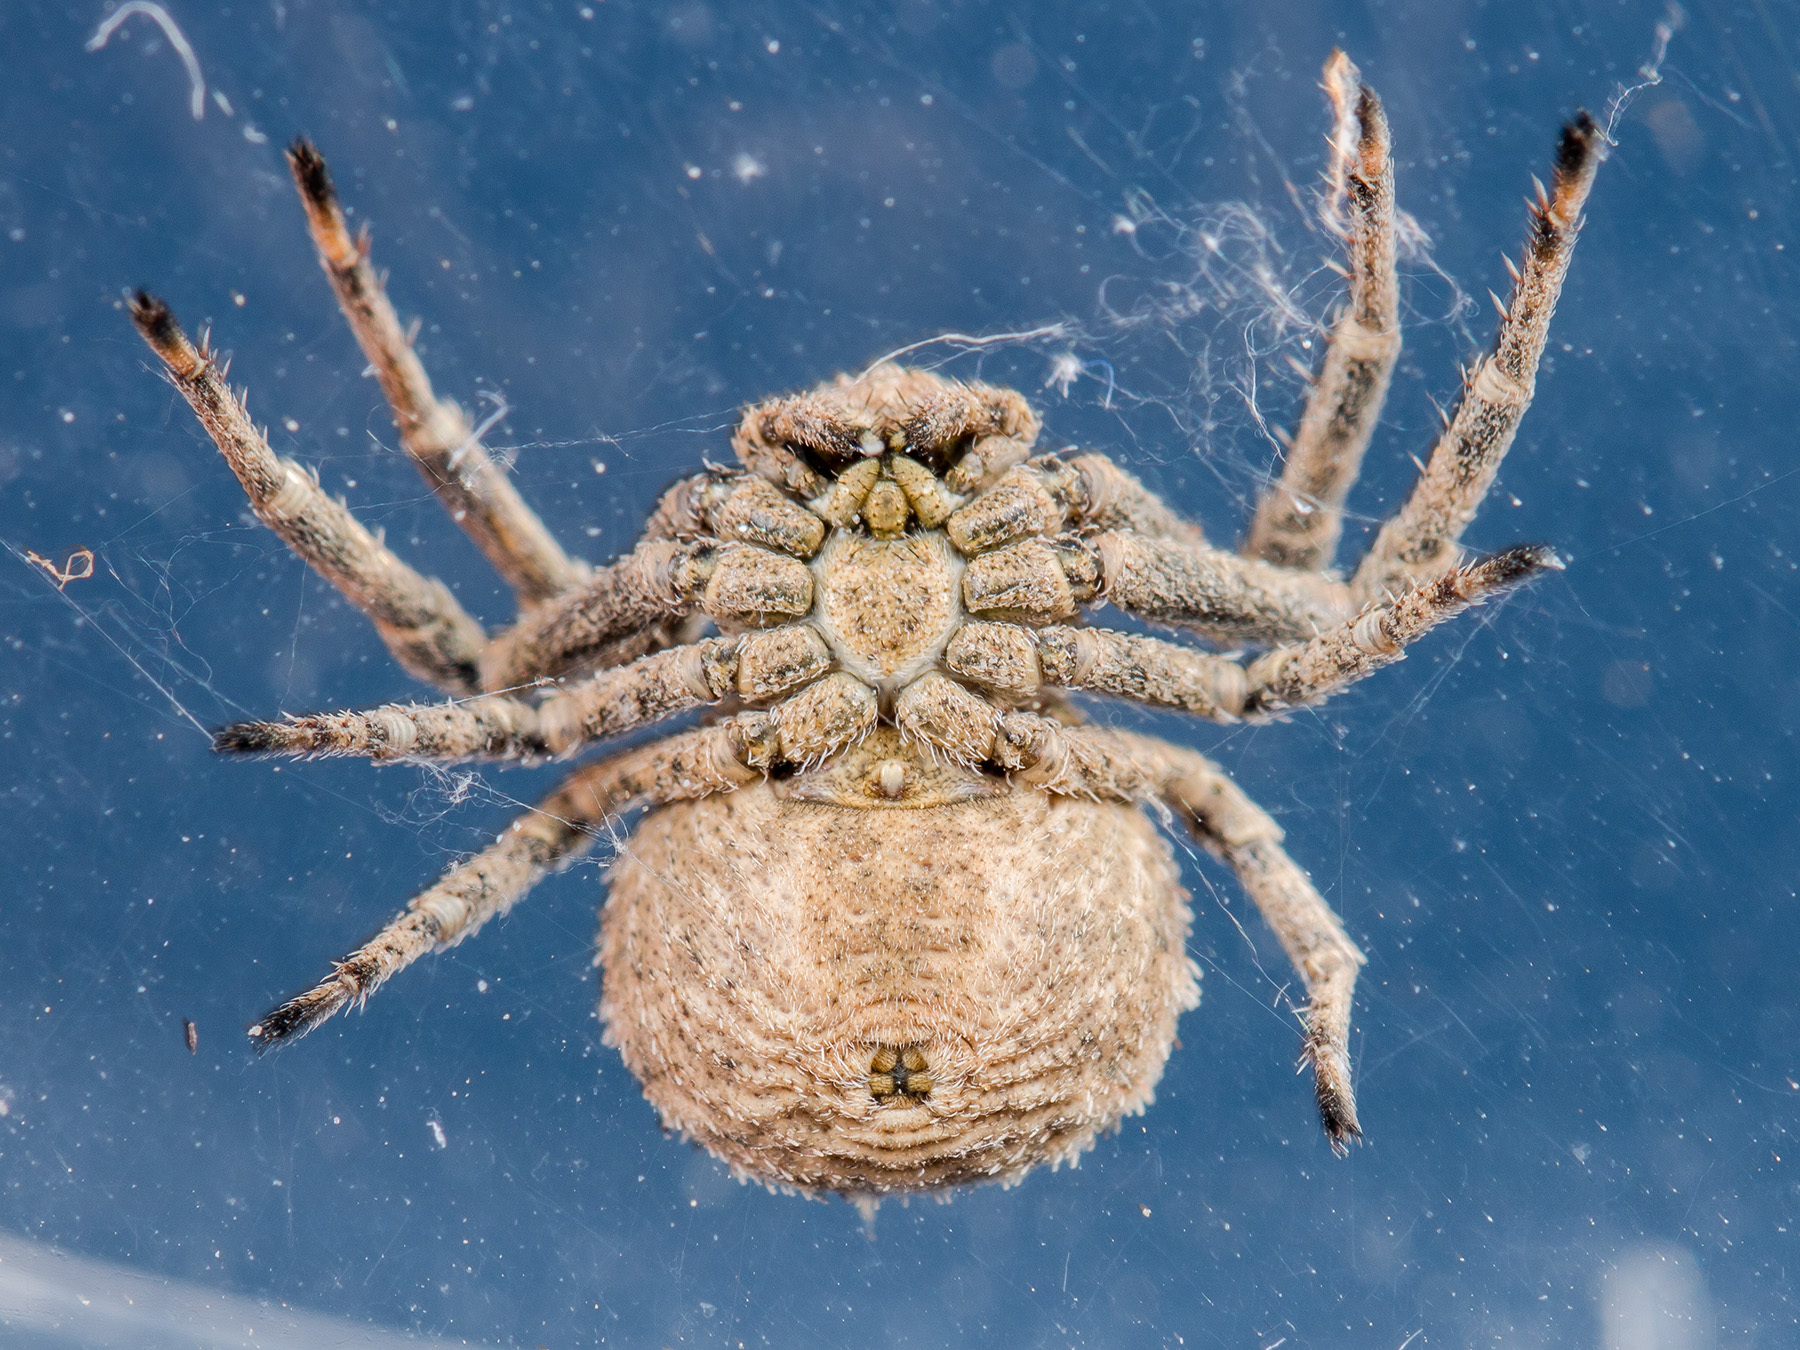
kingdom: Animalia
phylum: Arthropoda
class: Arachnida
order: Araneae
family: Thomisidae
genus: Ozyptila
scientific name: Ozyptila tuberosa
